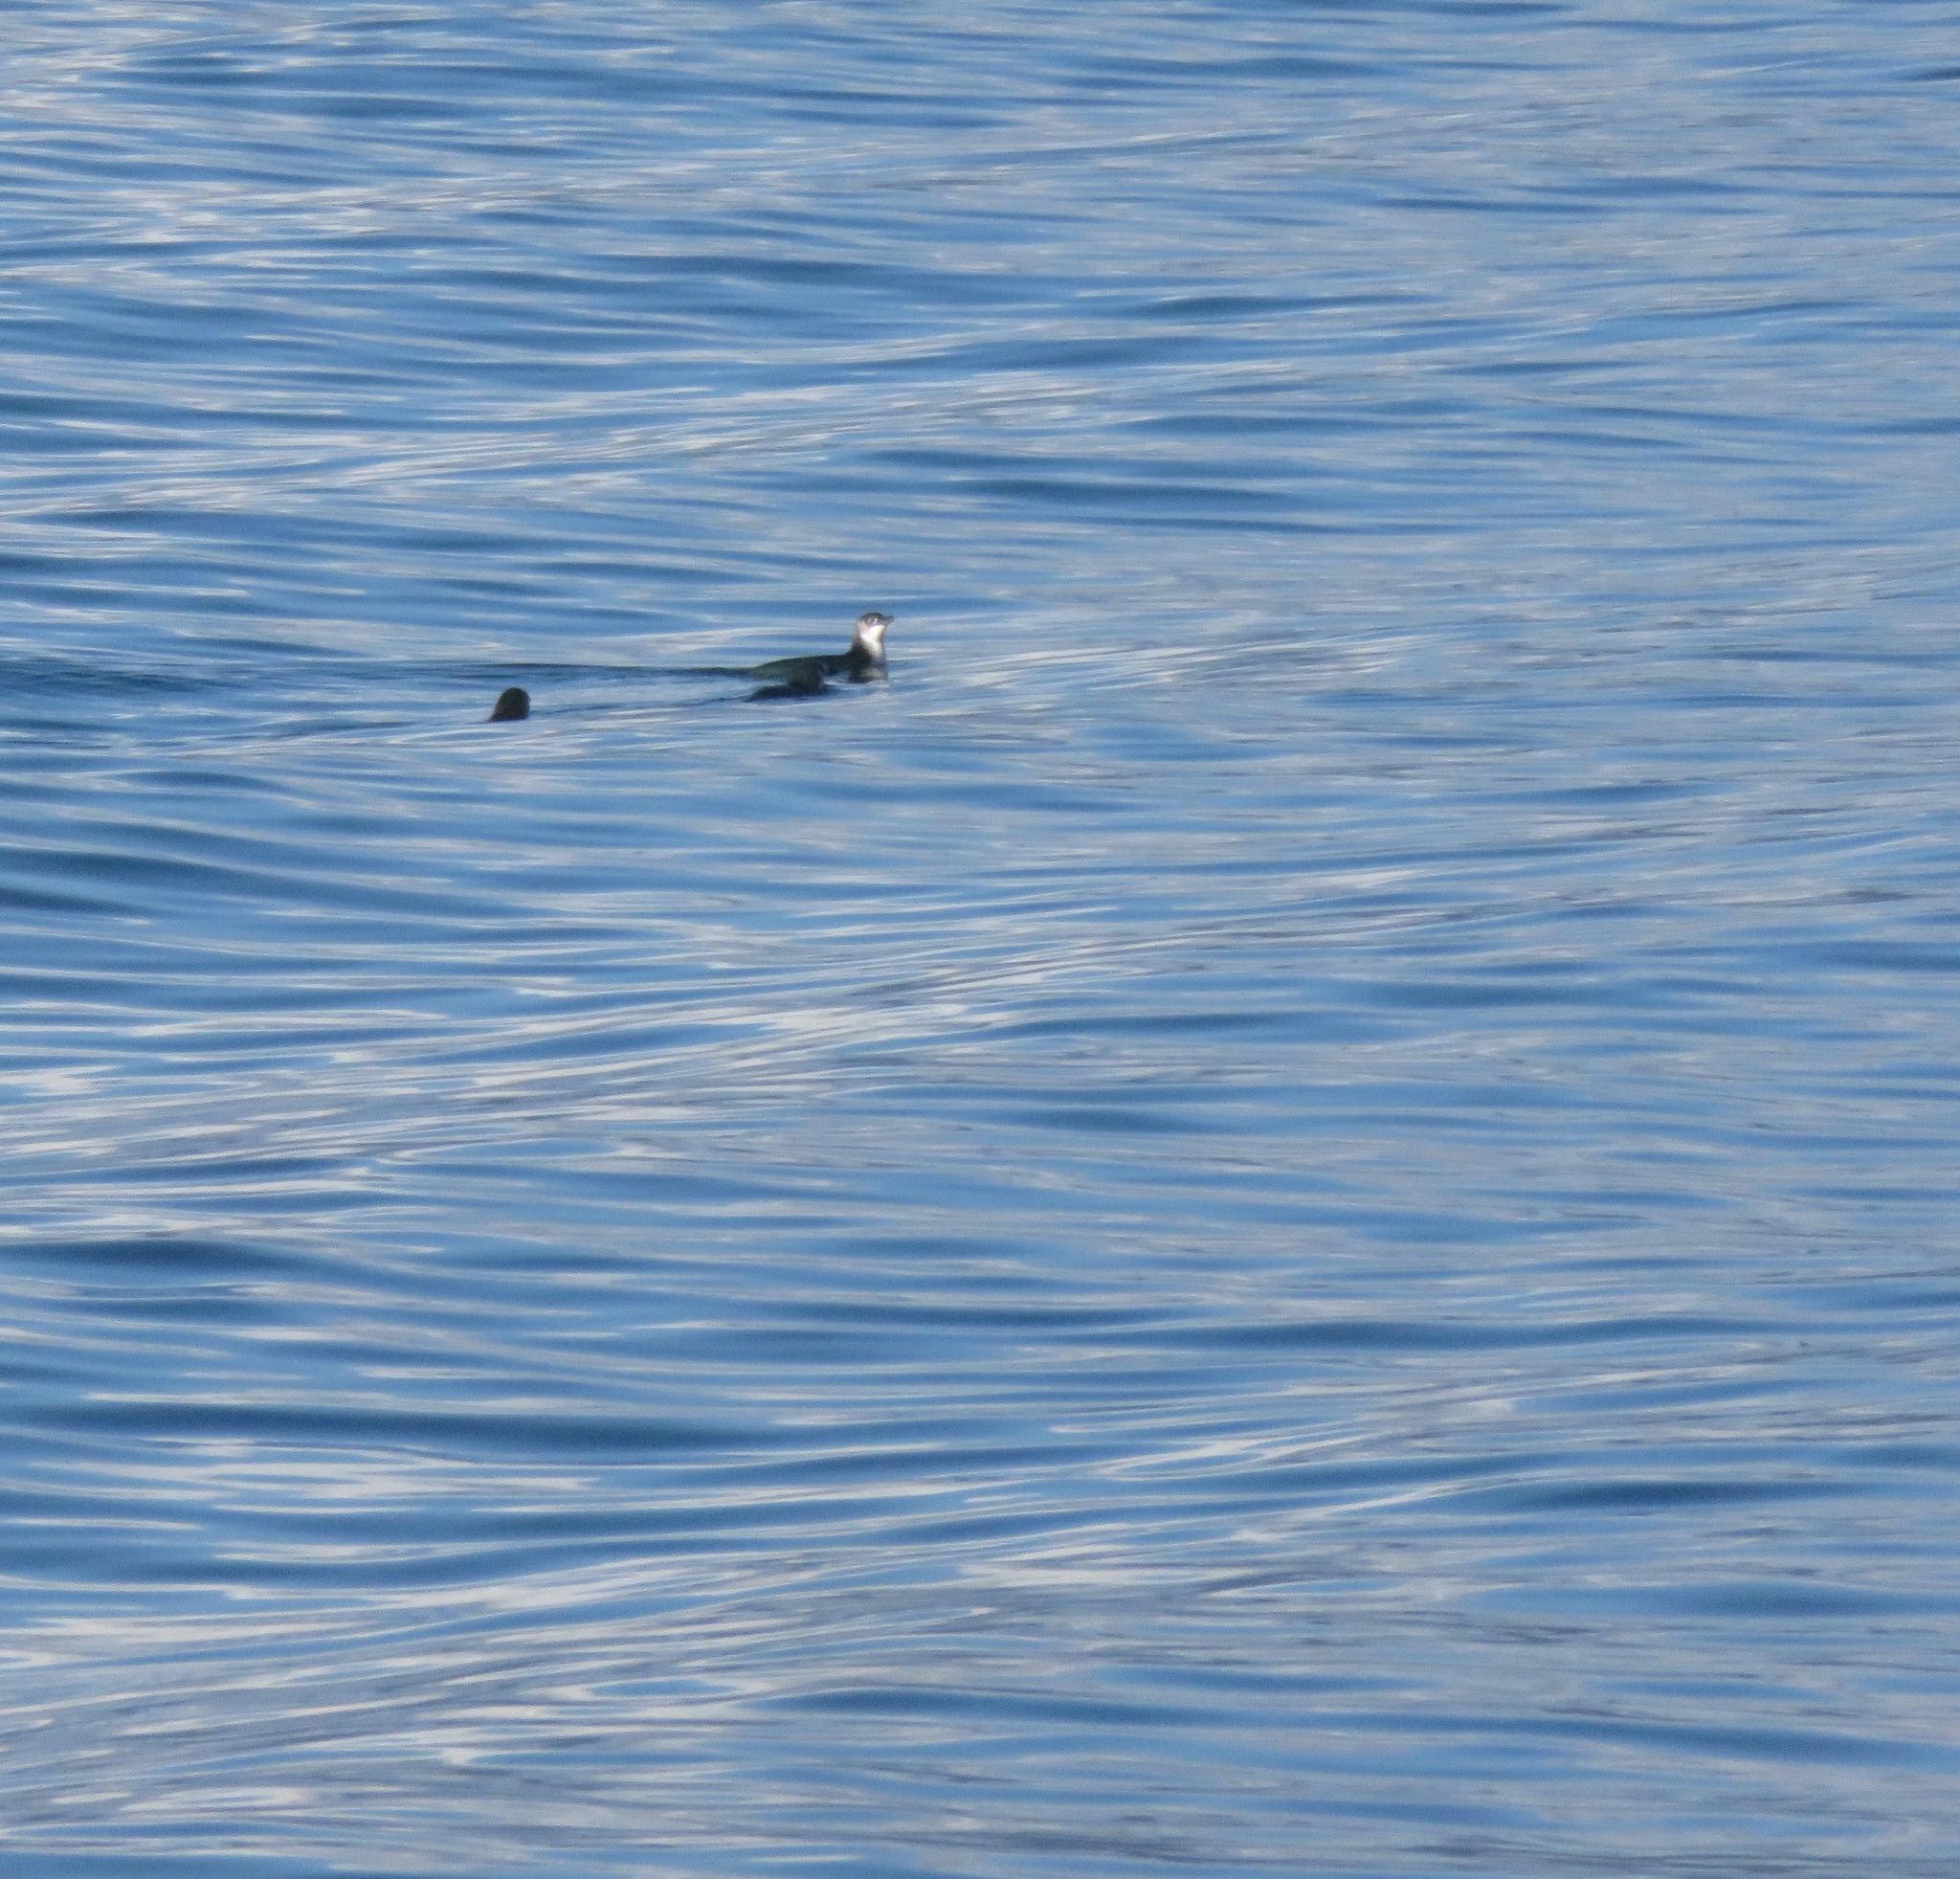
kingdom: Animalia
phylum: Chordata
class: Aves
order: Sphenisciformes
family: Spheniscidae
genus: Eudyptula
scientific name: Eudyptula minor
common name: Little penguin
